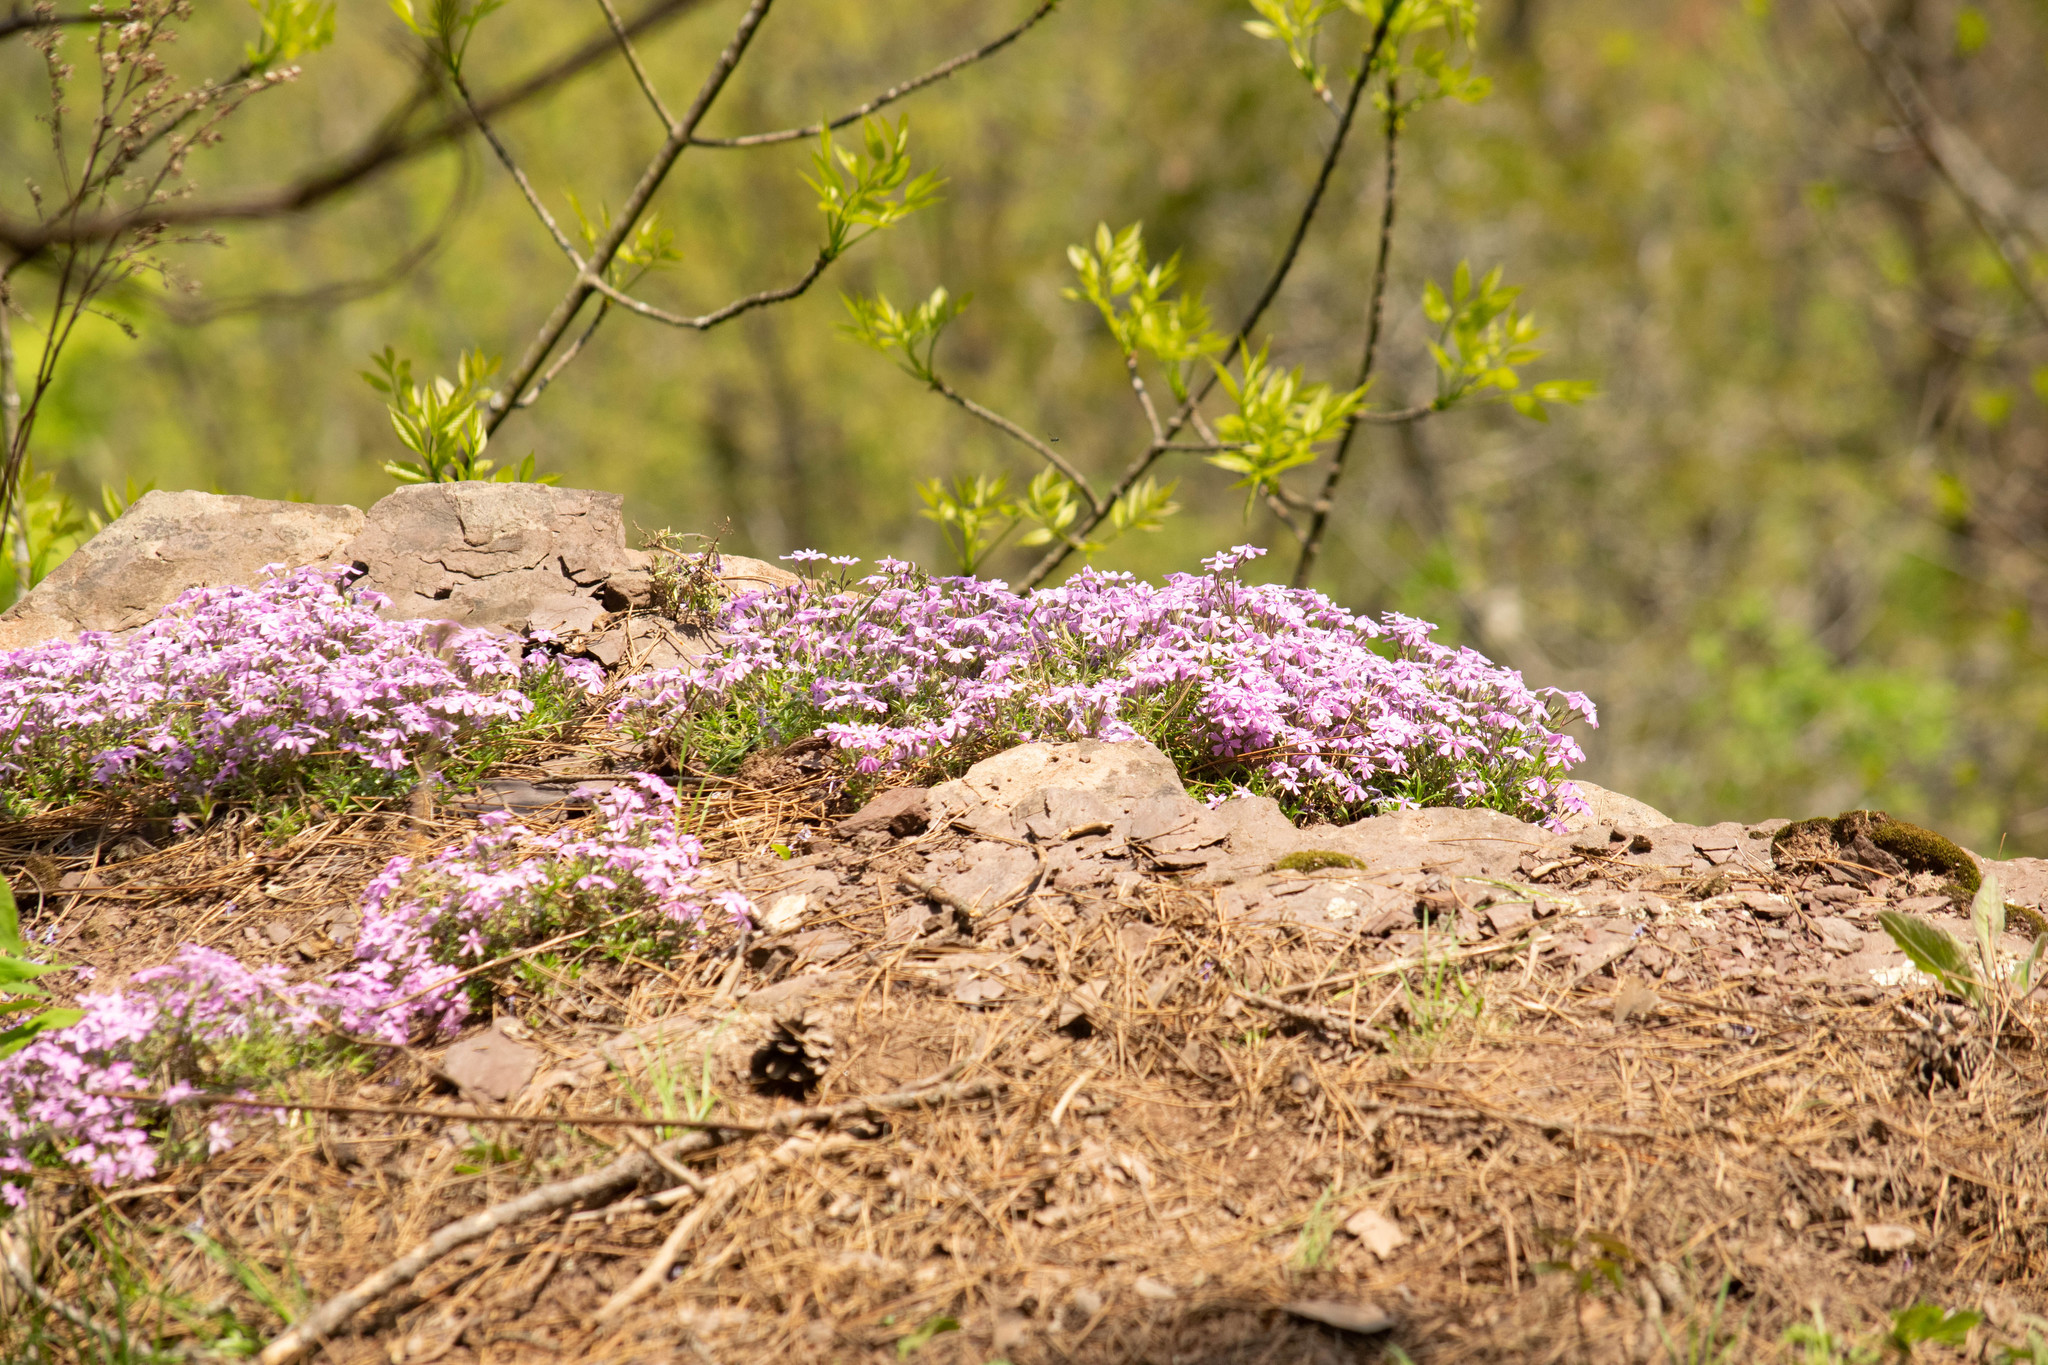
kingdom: Plantae
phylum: Tracheophyta
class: Magnoliopsida
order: Ericales
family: Polemoniaceae
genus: Phlox
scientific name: Phlox subulata
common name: Moss phlox
